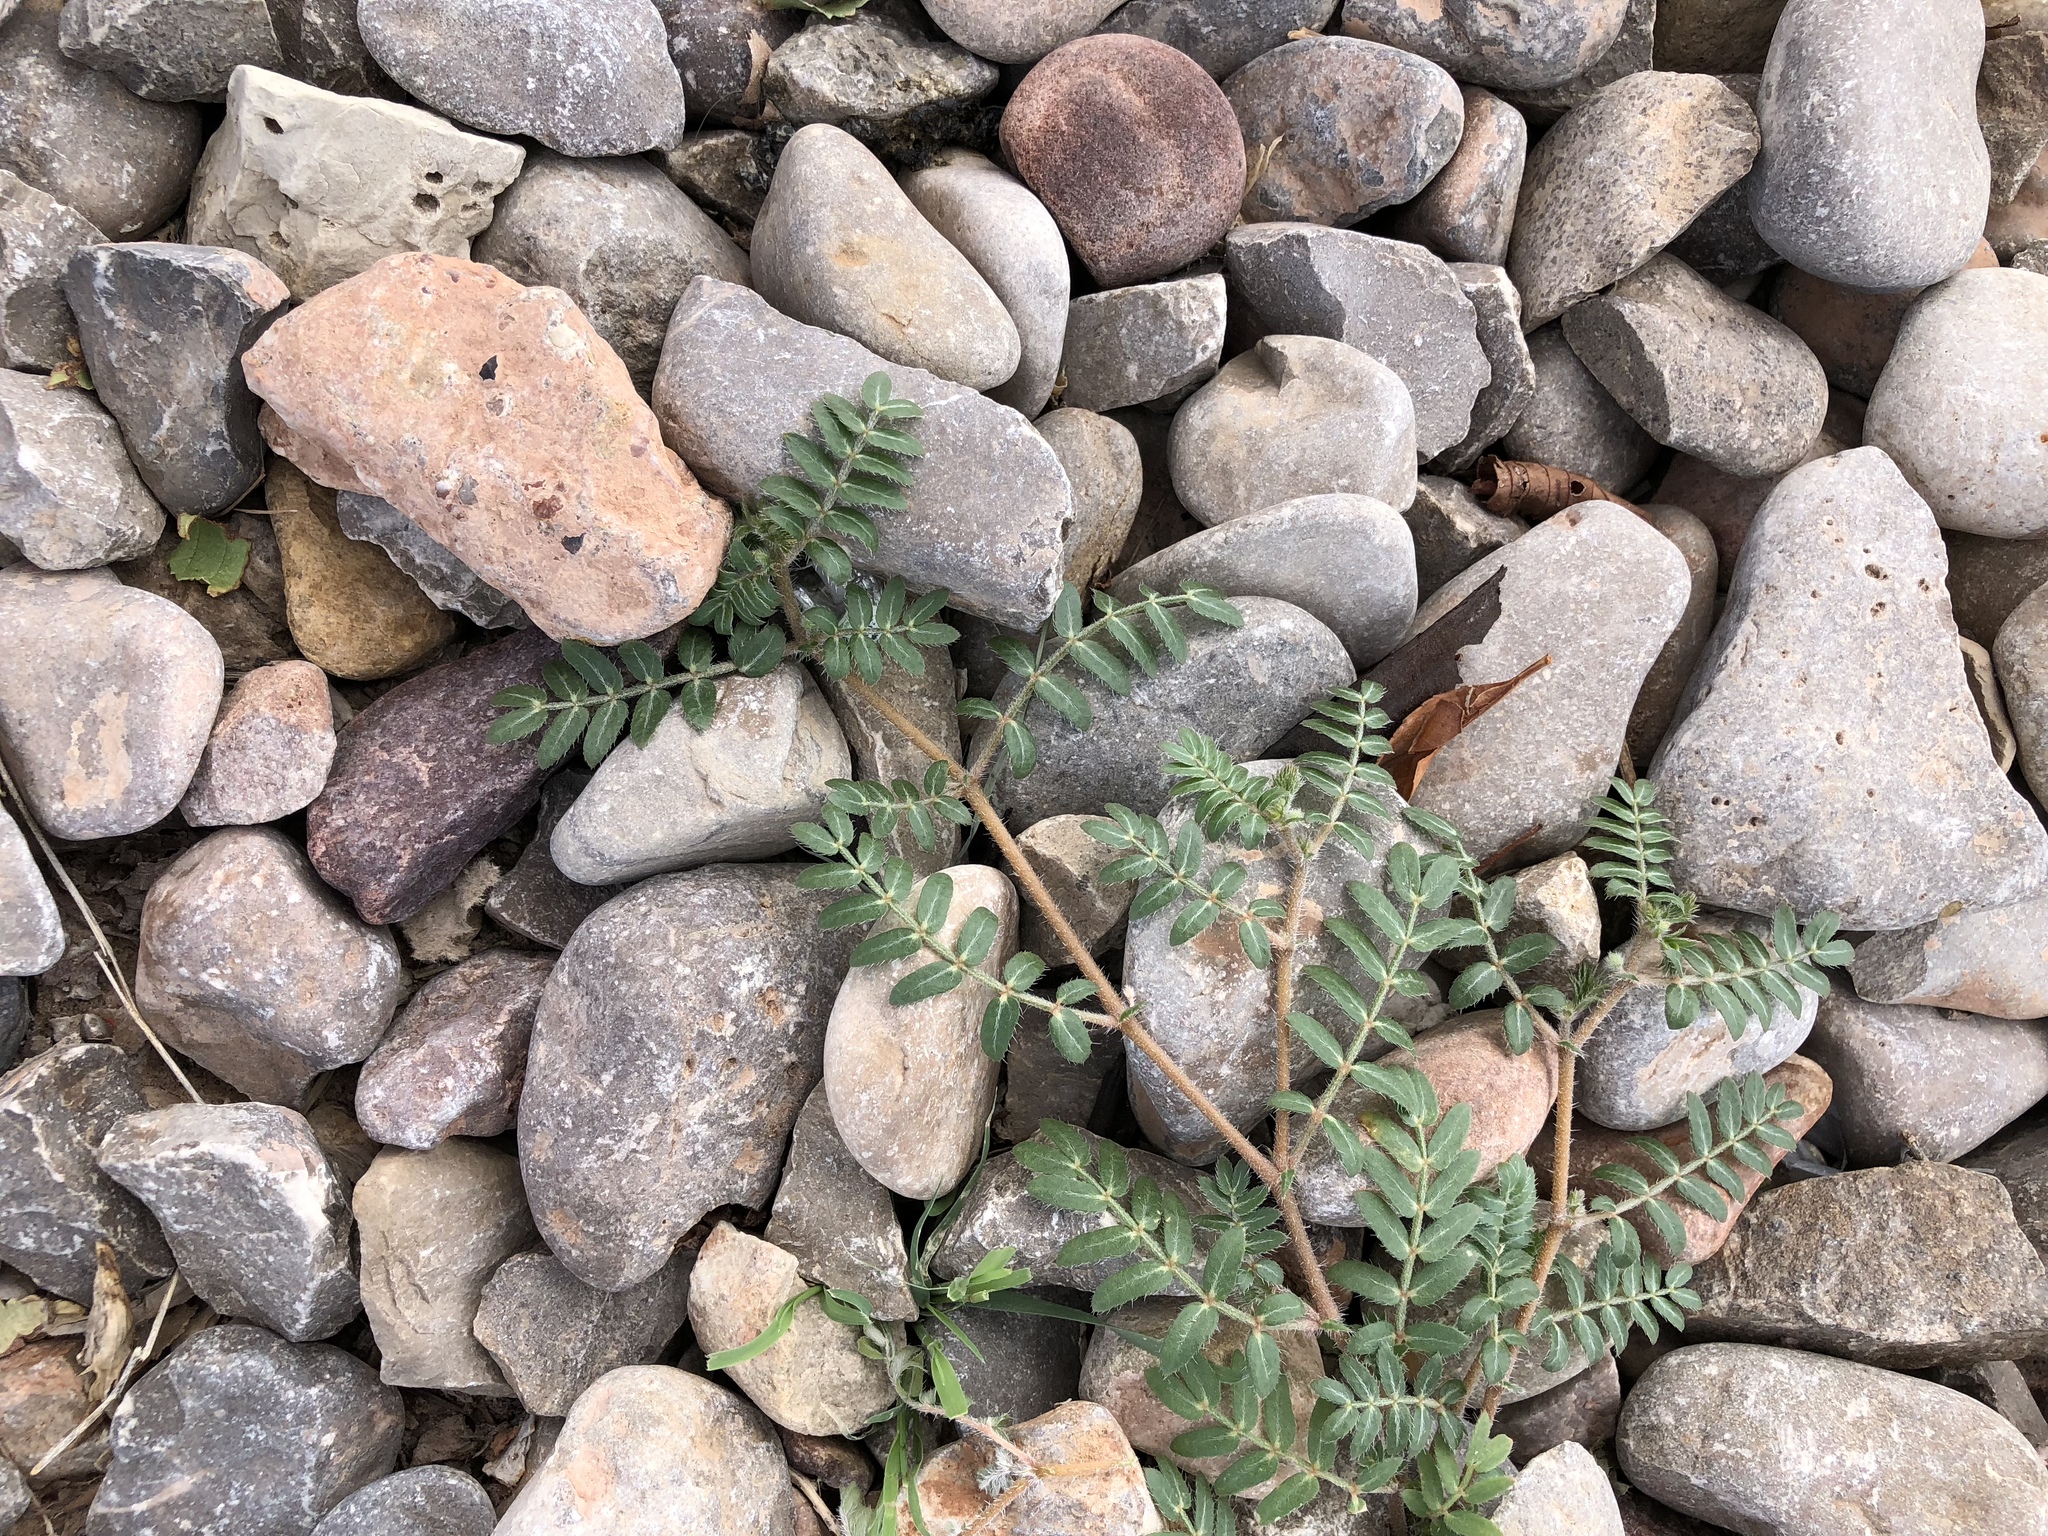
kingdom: Plantae
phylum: Tracheophyta
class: Magnoliopsida
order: Zygophyllales
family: Zygophyllaceae
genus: Tribulus
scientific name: Tribulus terrestris
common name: Puncturevine
